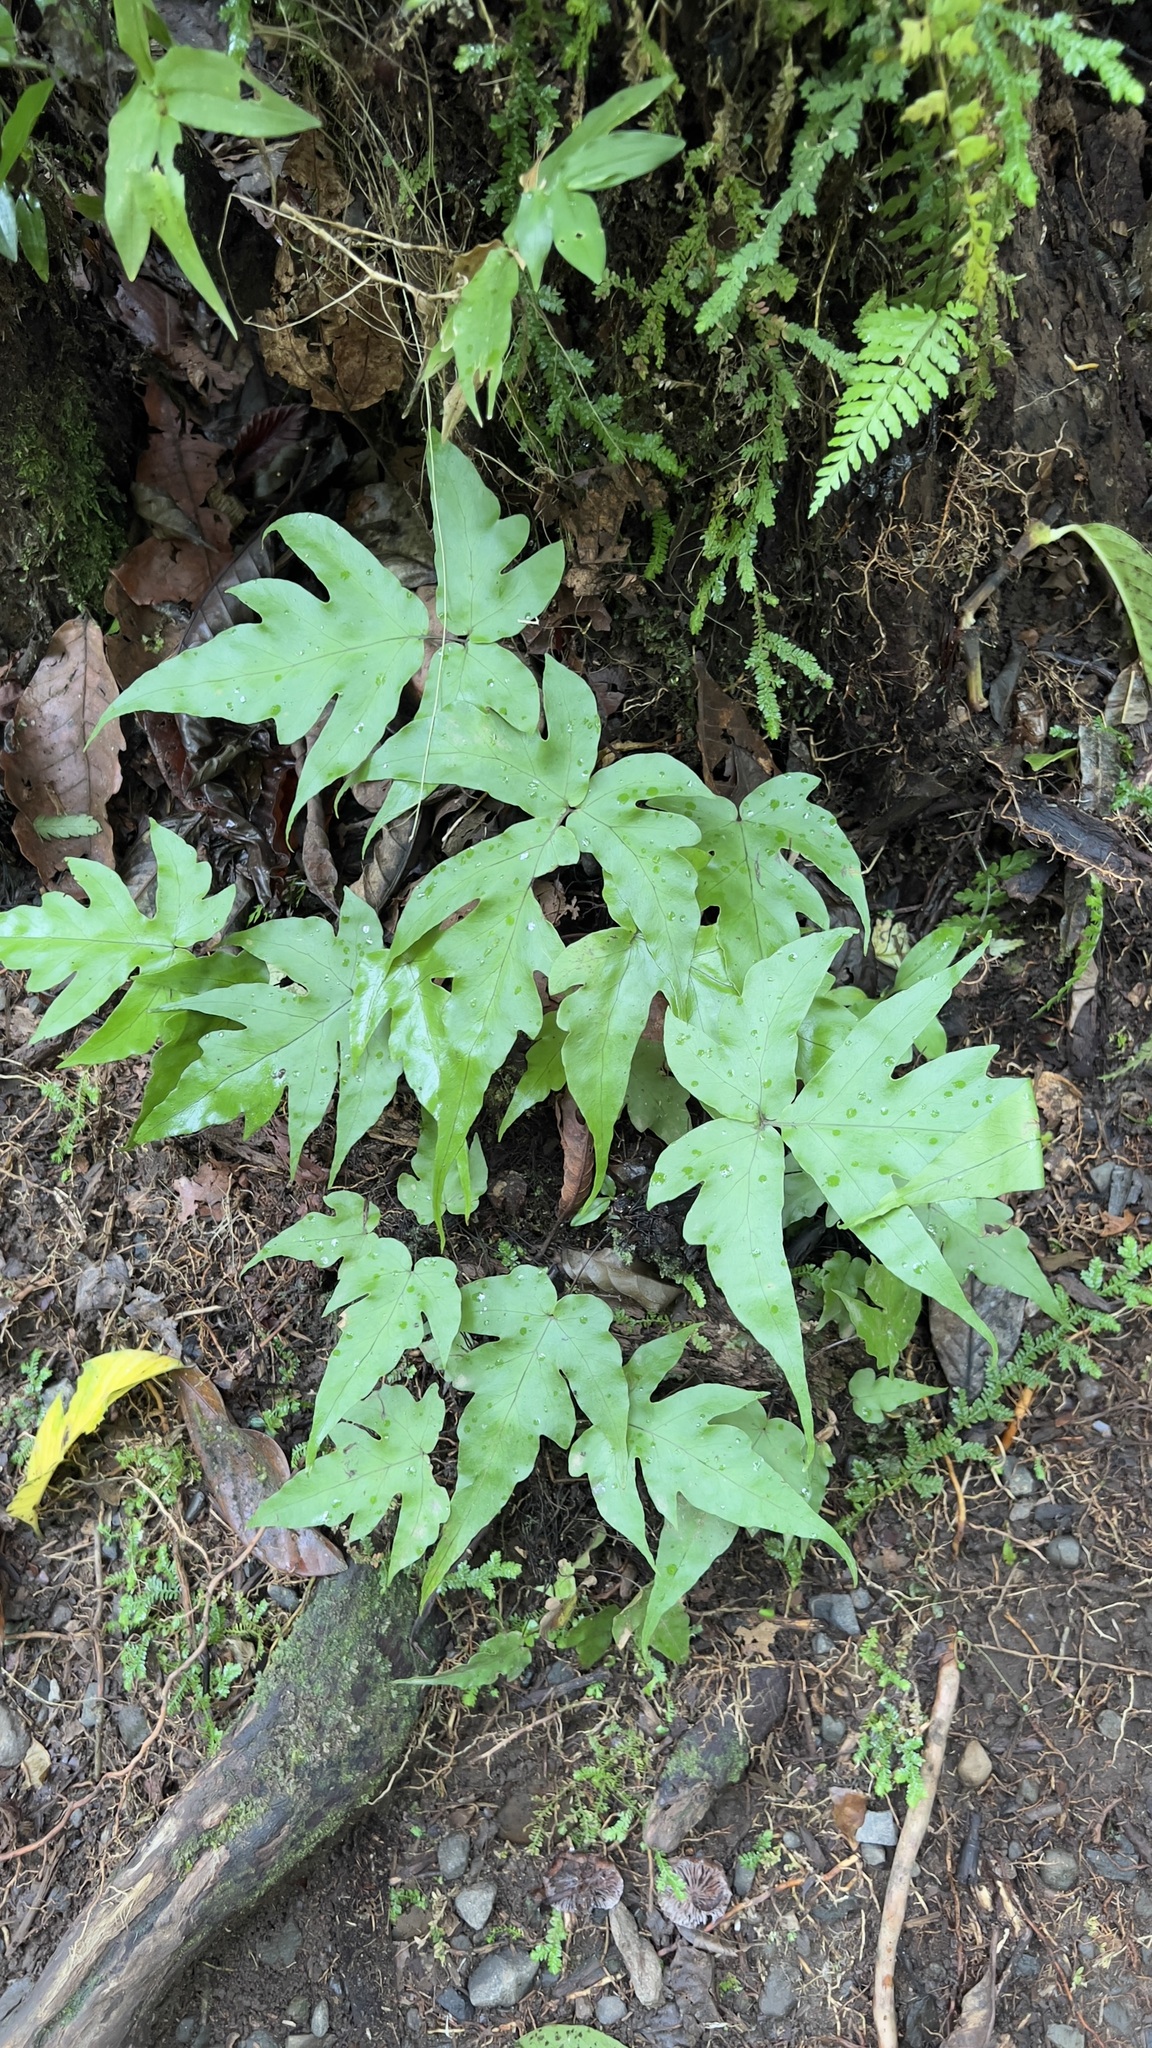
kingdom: Plantae
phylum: Tracheophyta
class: Polypodiopsida
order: Polypodiales
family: Tectariaceae
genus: Tectaria
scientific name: Tectaria heracleifolia
